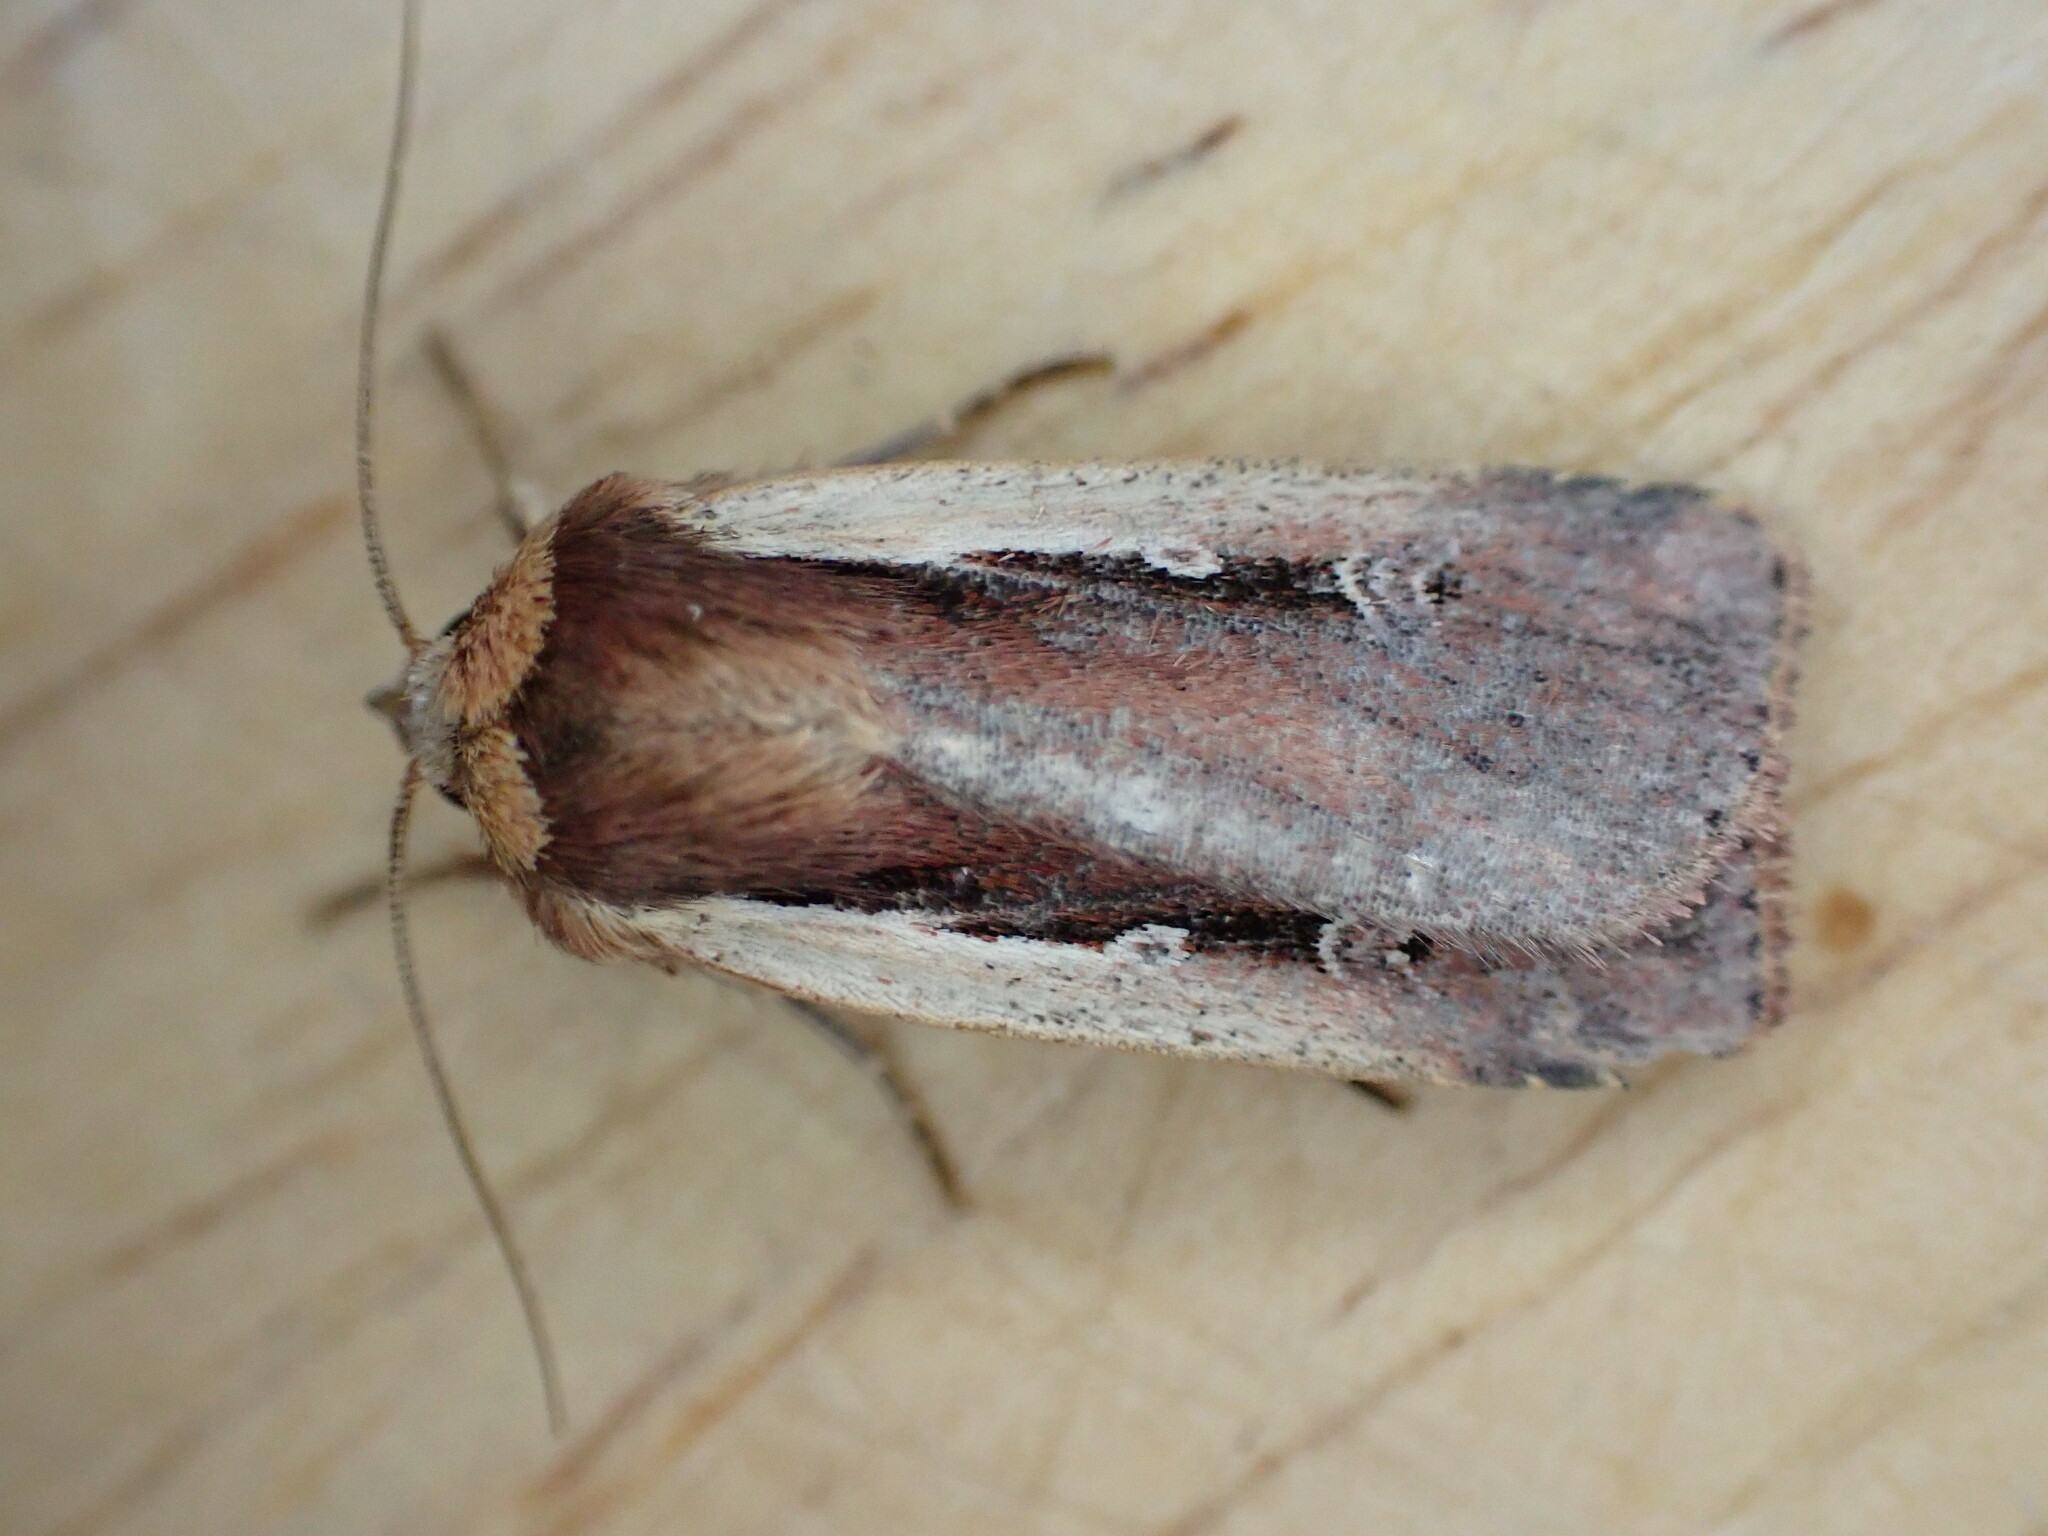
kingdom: Animalia
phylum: Arthropoda
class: Insecta
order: Lepidoptera
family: Noctuidae
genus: Ochropleura
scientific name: Ochropleura plecta
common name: Flame shoulder
